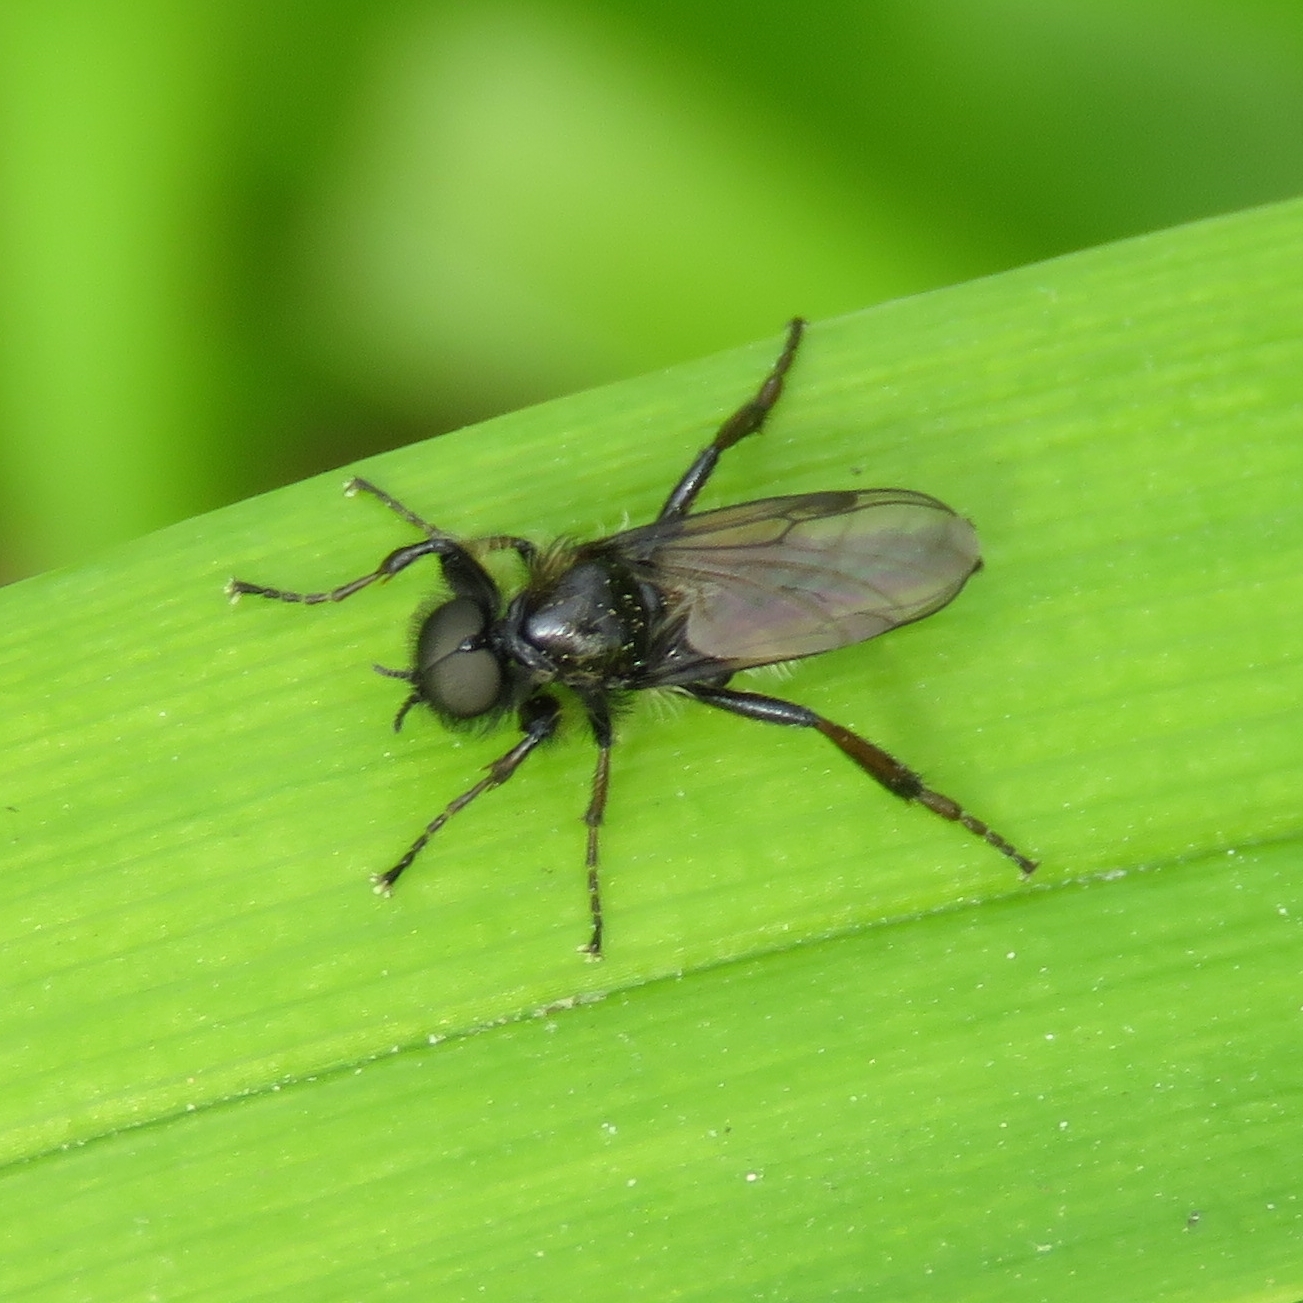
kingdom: Animalia
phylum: Arthropoda
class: Insecta
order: Diptera
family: Bibionidae
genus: Bibio
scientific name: Bibio lanigerus
